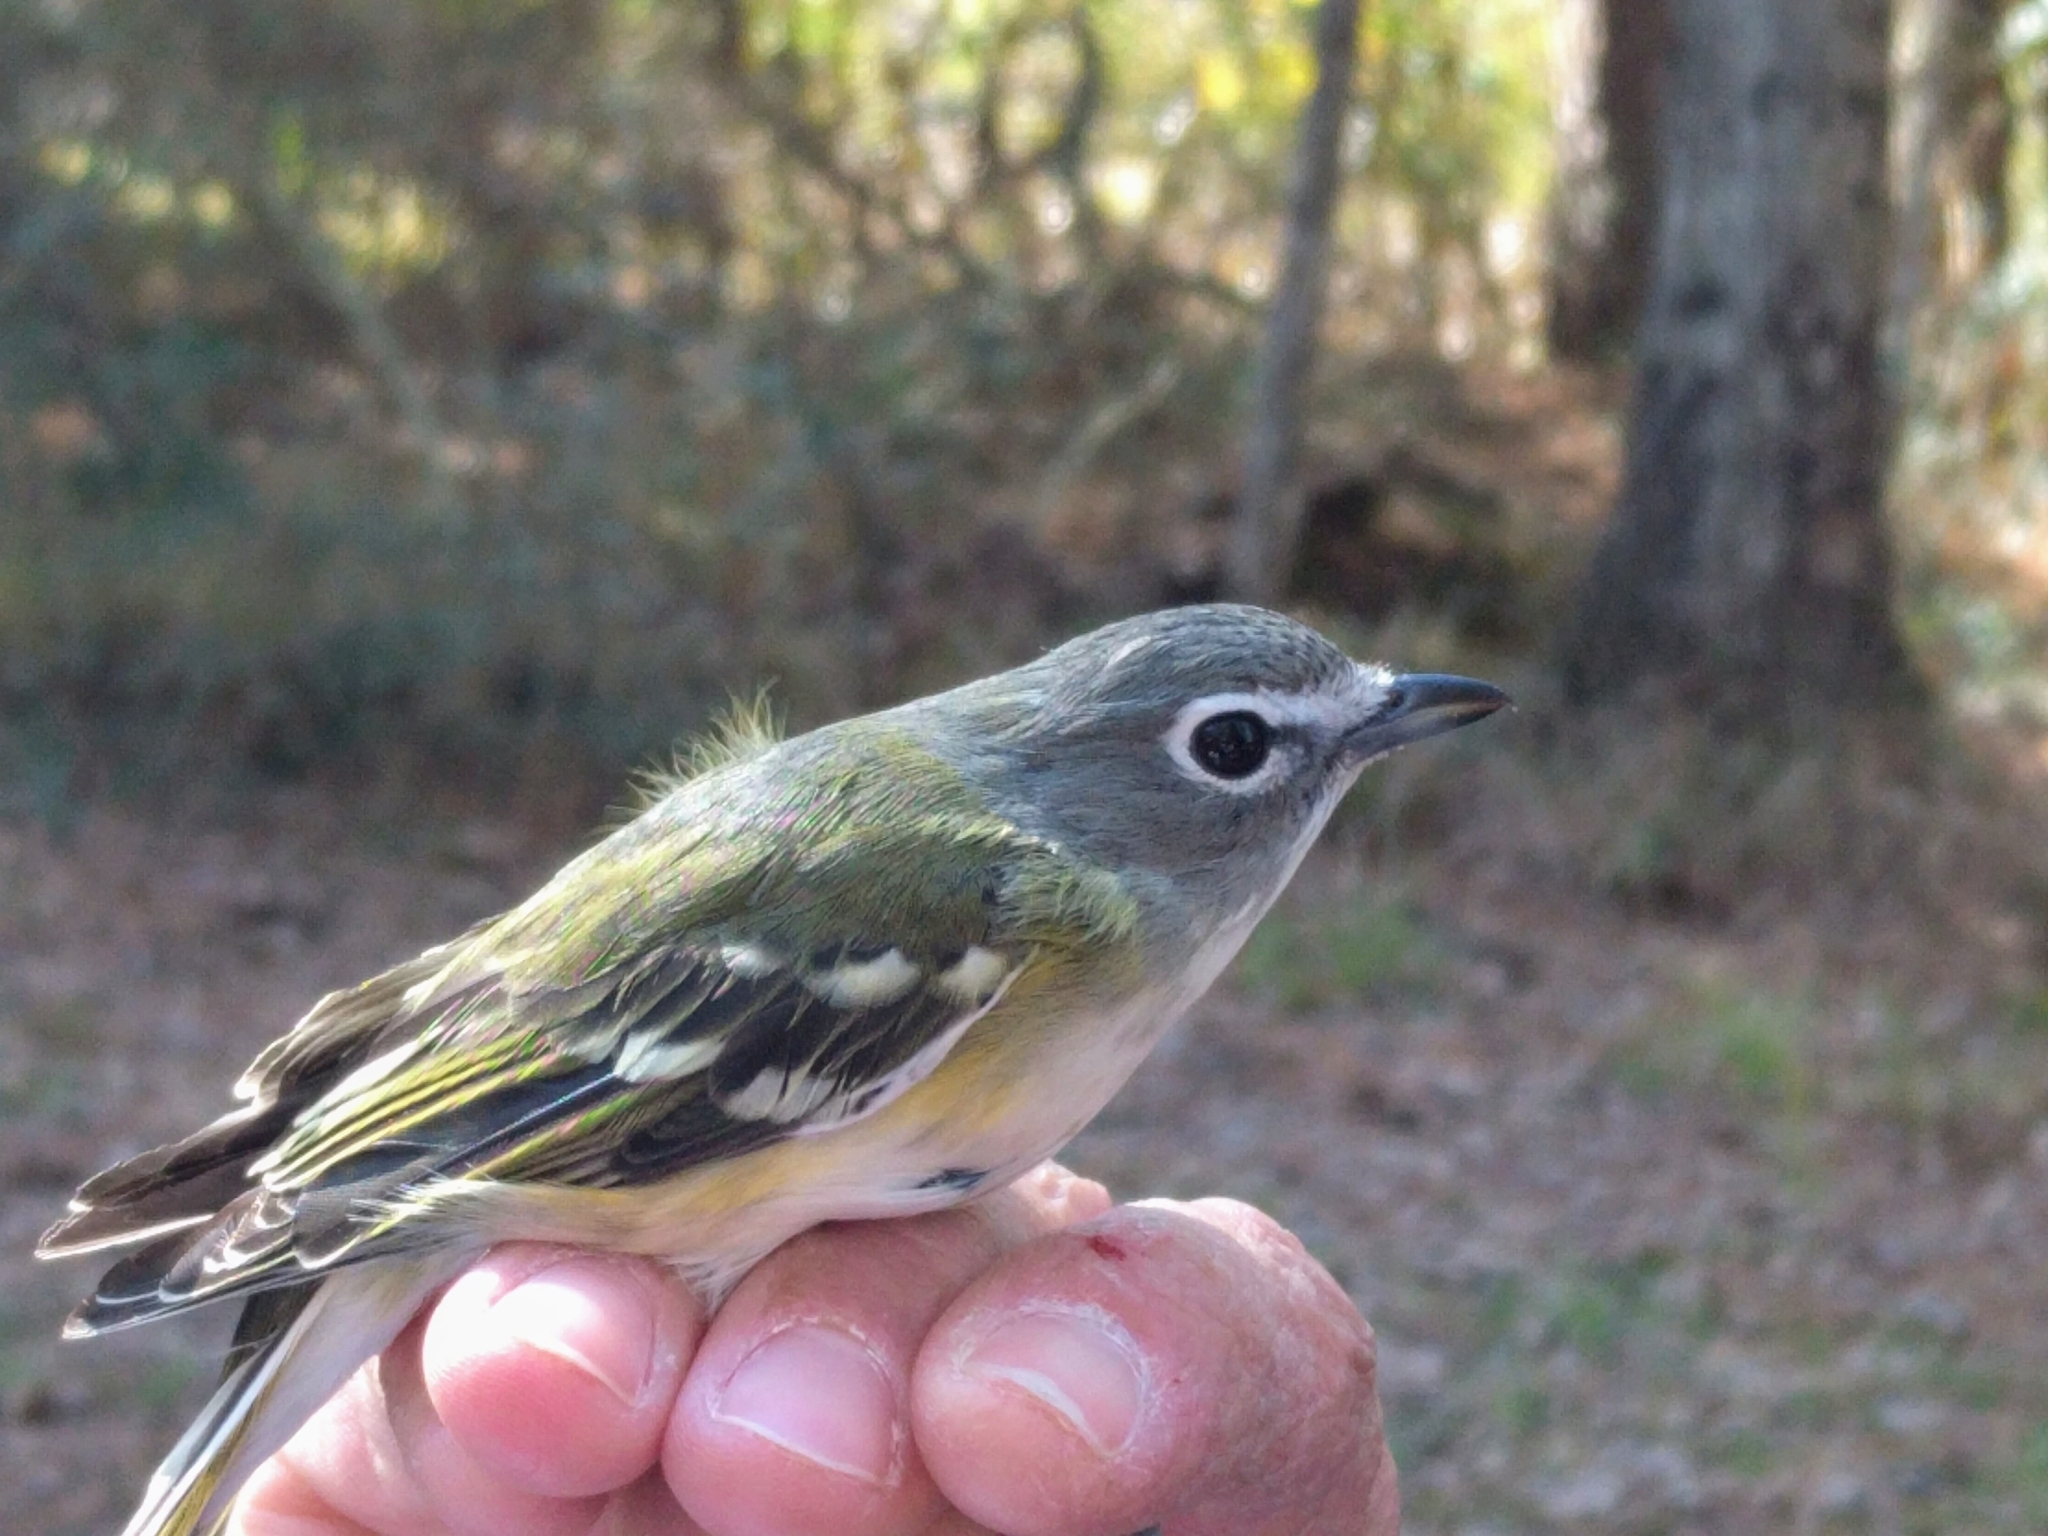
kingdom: Animalia
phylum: Chordata
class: Aves
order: Passeriformes
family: Vireonidae
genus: Vireo
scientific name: Vireo solitarius
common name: Blue-headed vireo
